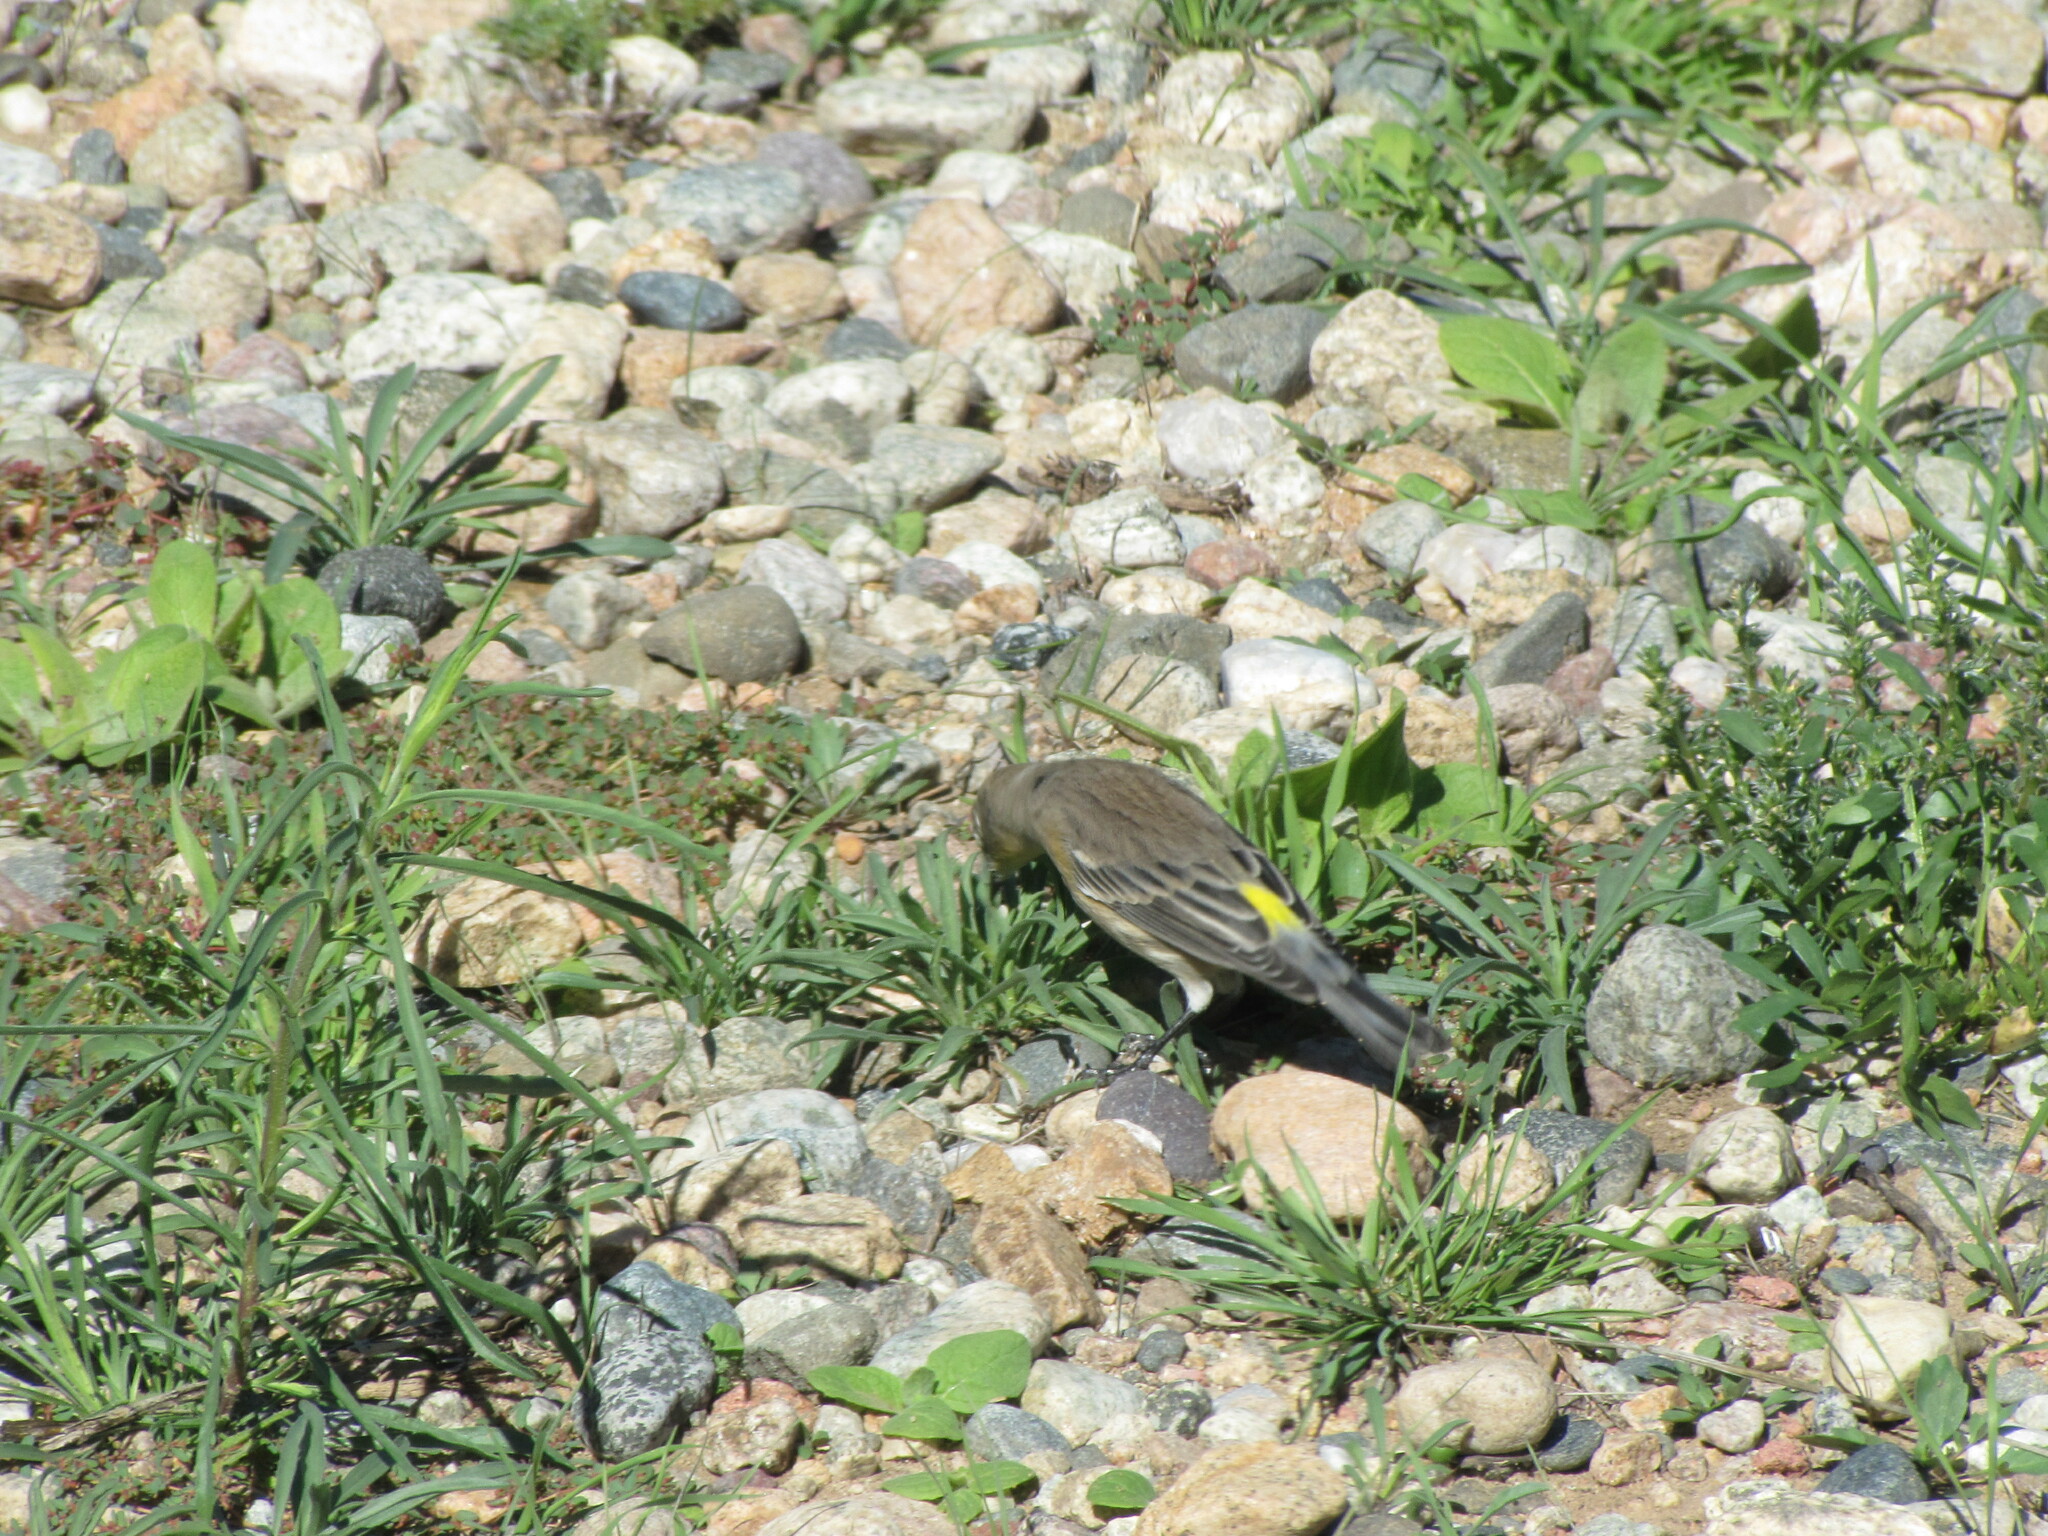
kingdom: Animalia
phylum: Chordata
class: Aves
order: Passeriformes
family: Parulidae
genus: Setophaga
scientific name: Setophaga coronata
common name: Myrtle warbler
